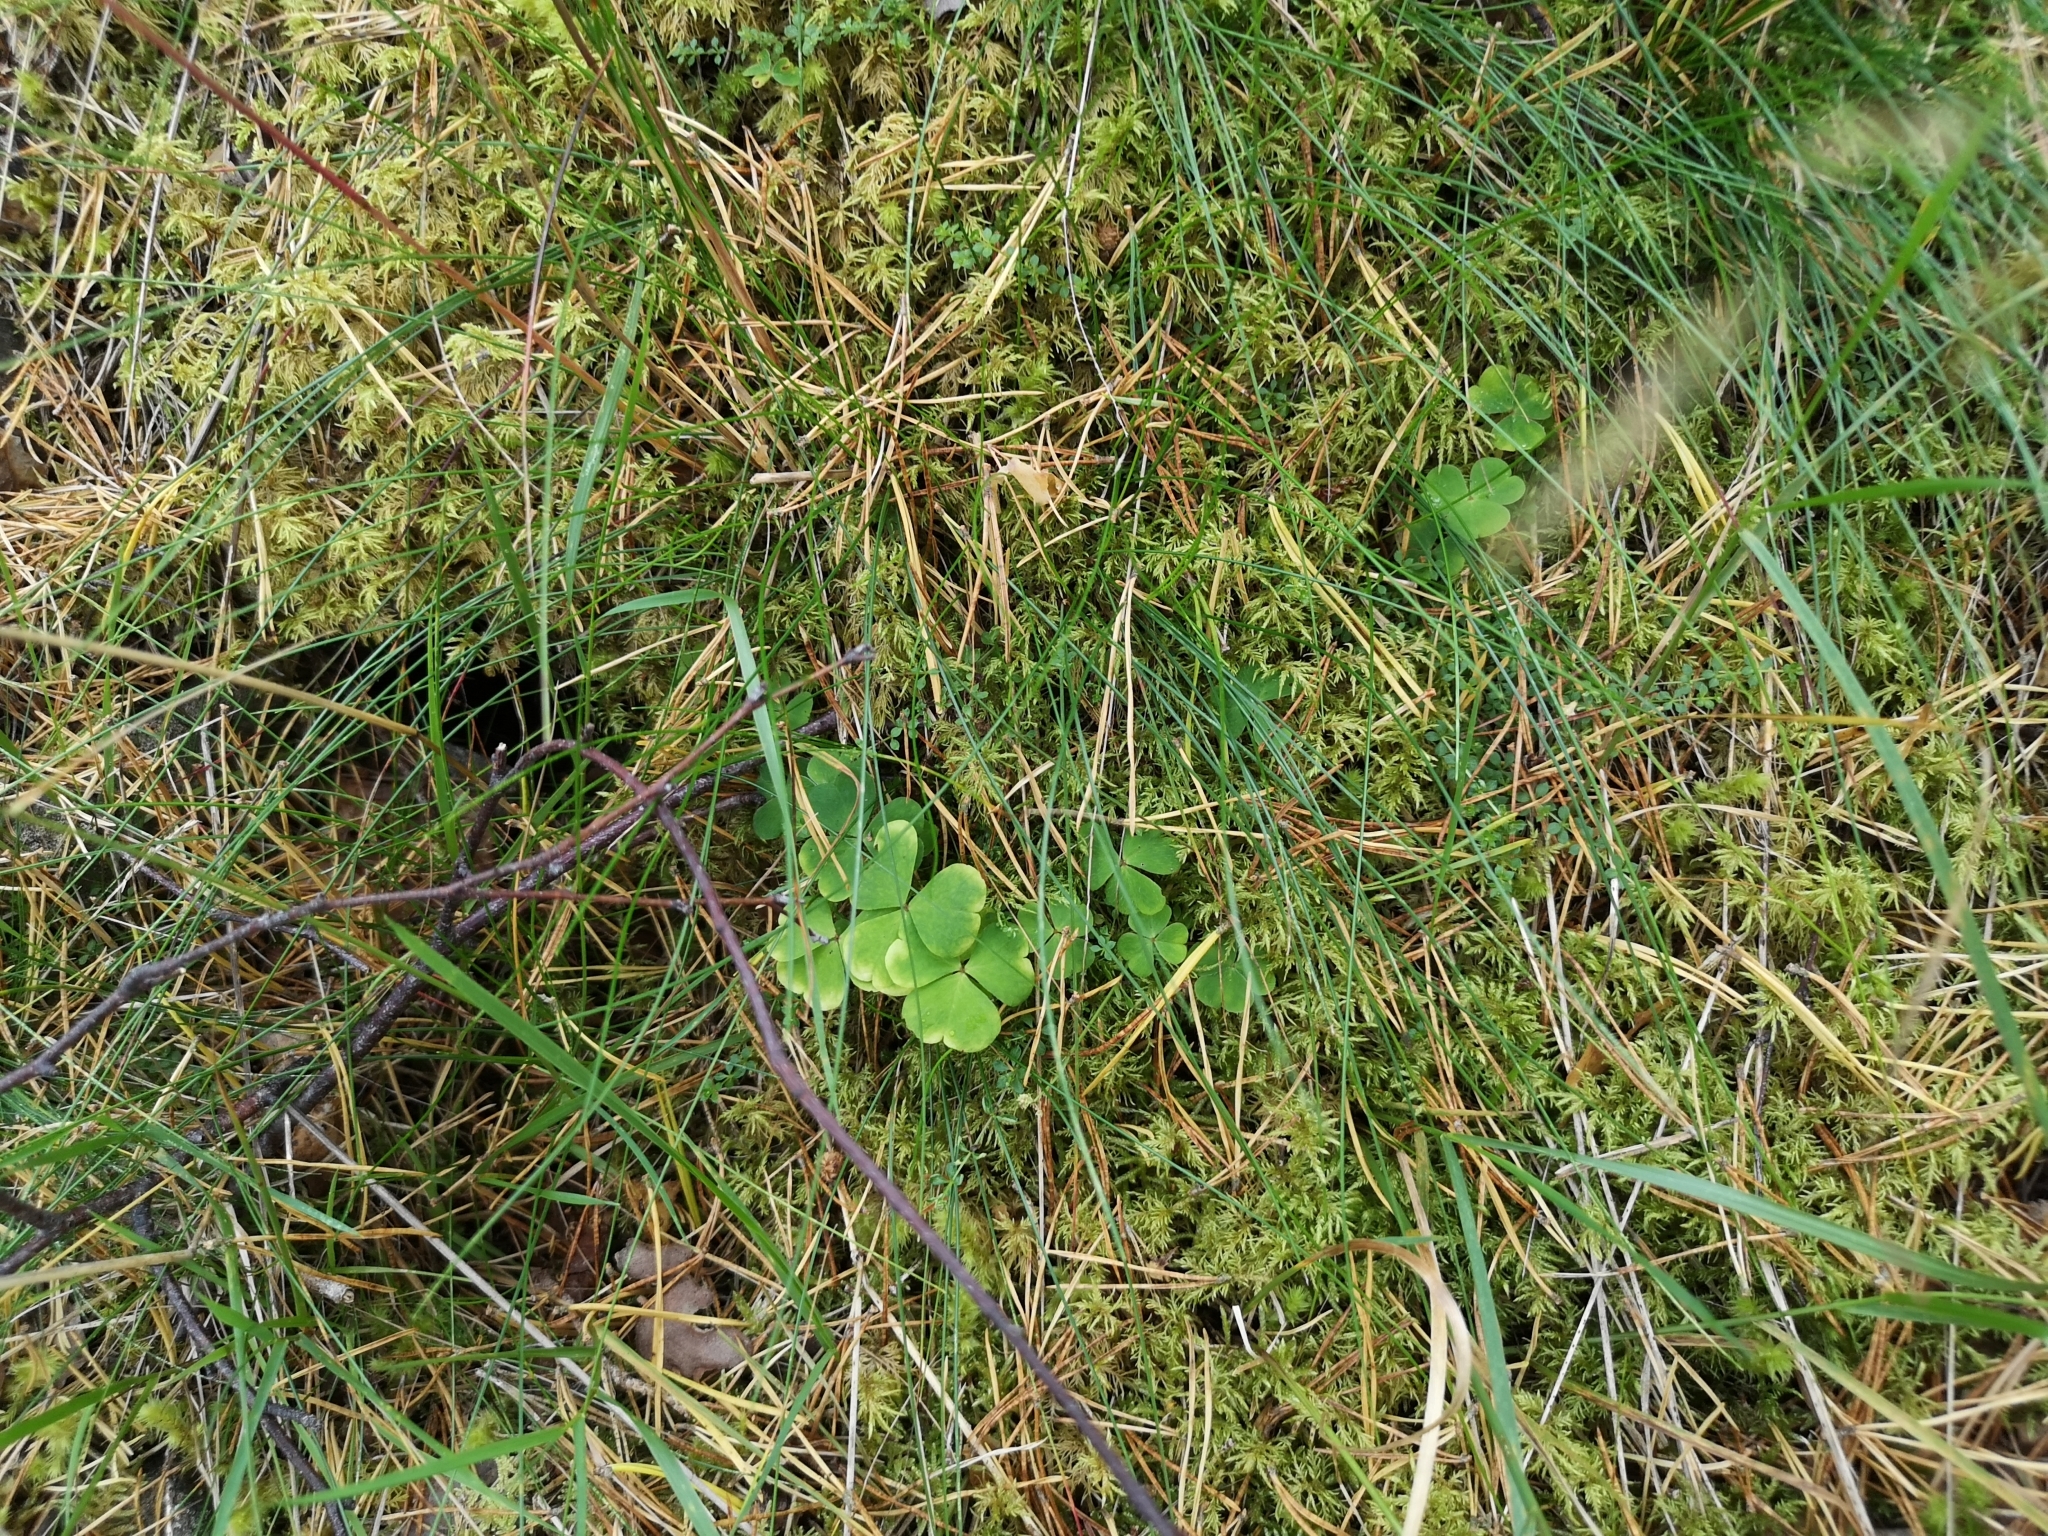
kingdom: Plantae
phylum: Tracheophyta
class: Magnoliopsida
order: Oxalidales
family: Oxalidaceae
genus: Oxalis
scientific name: Oxalis acetosella
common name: Wood-sorrel
